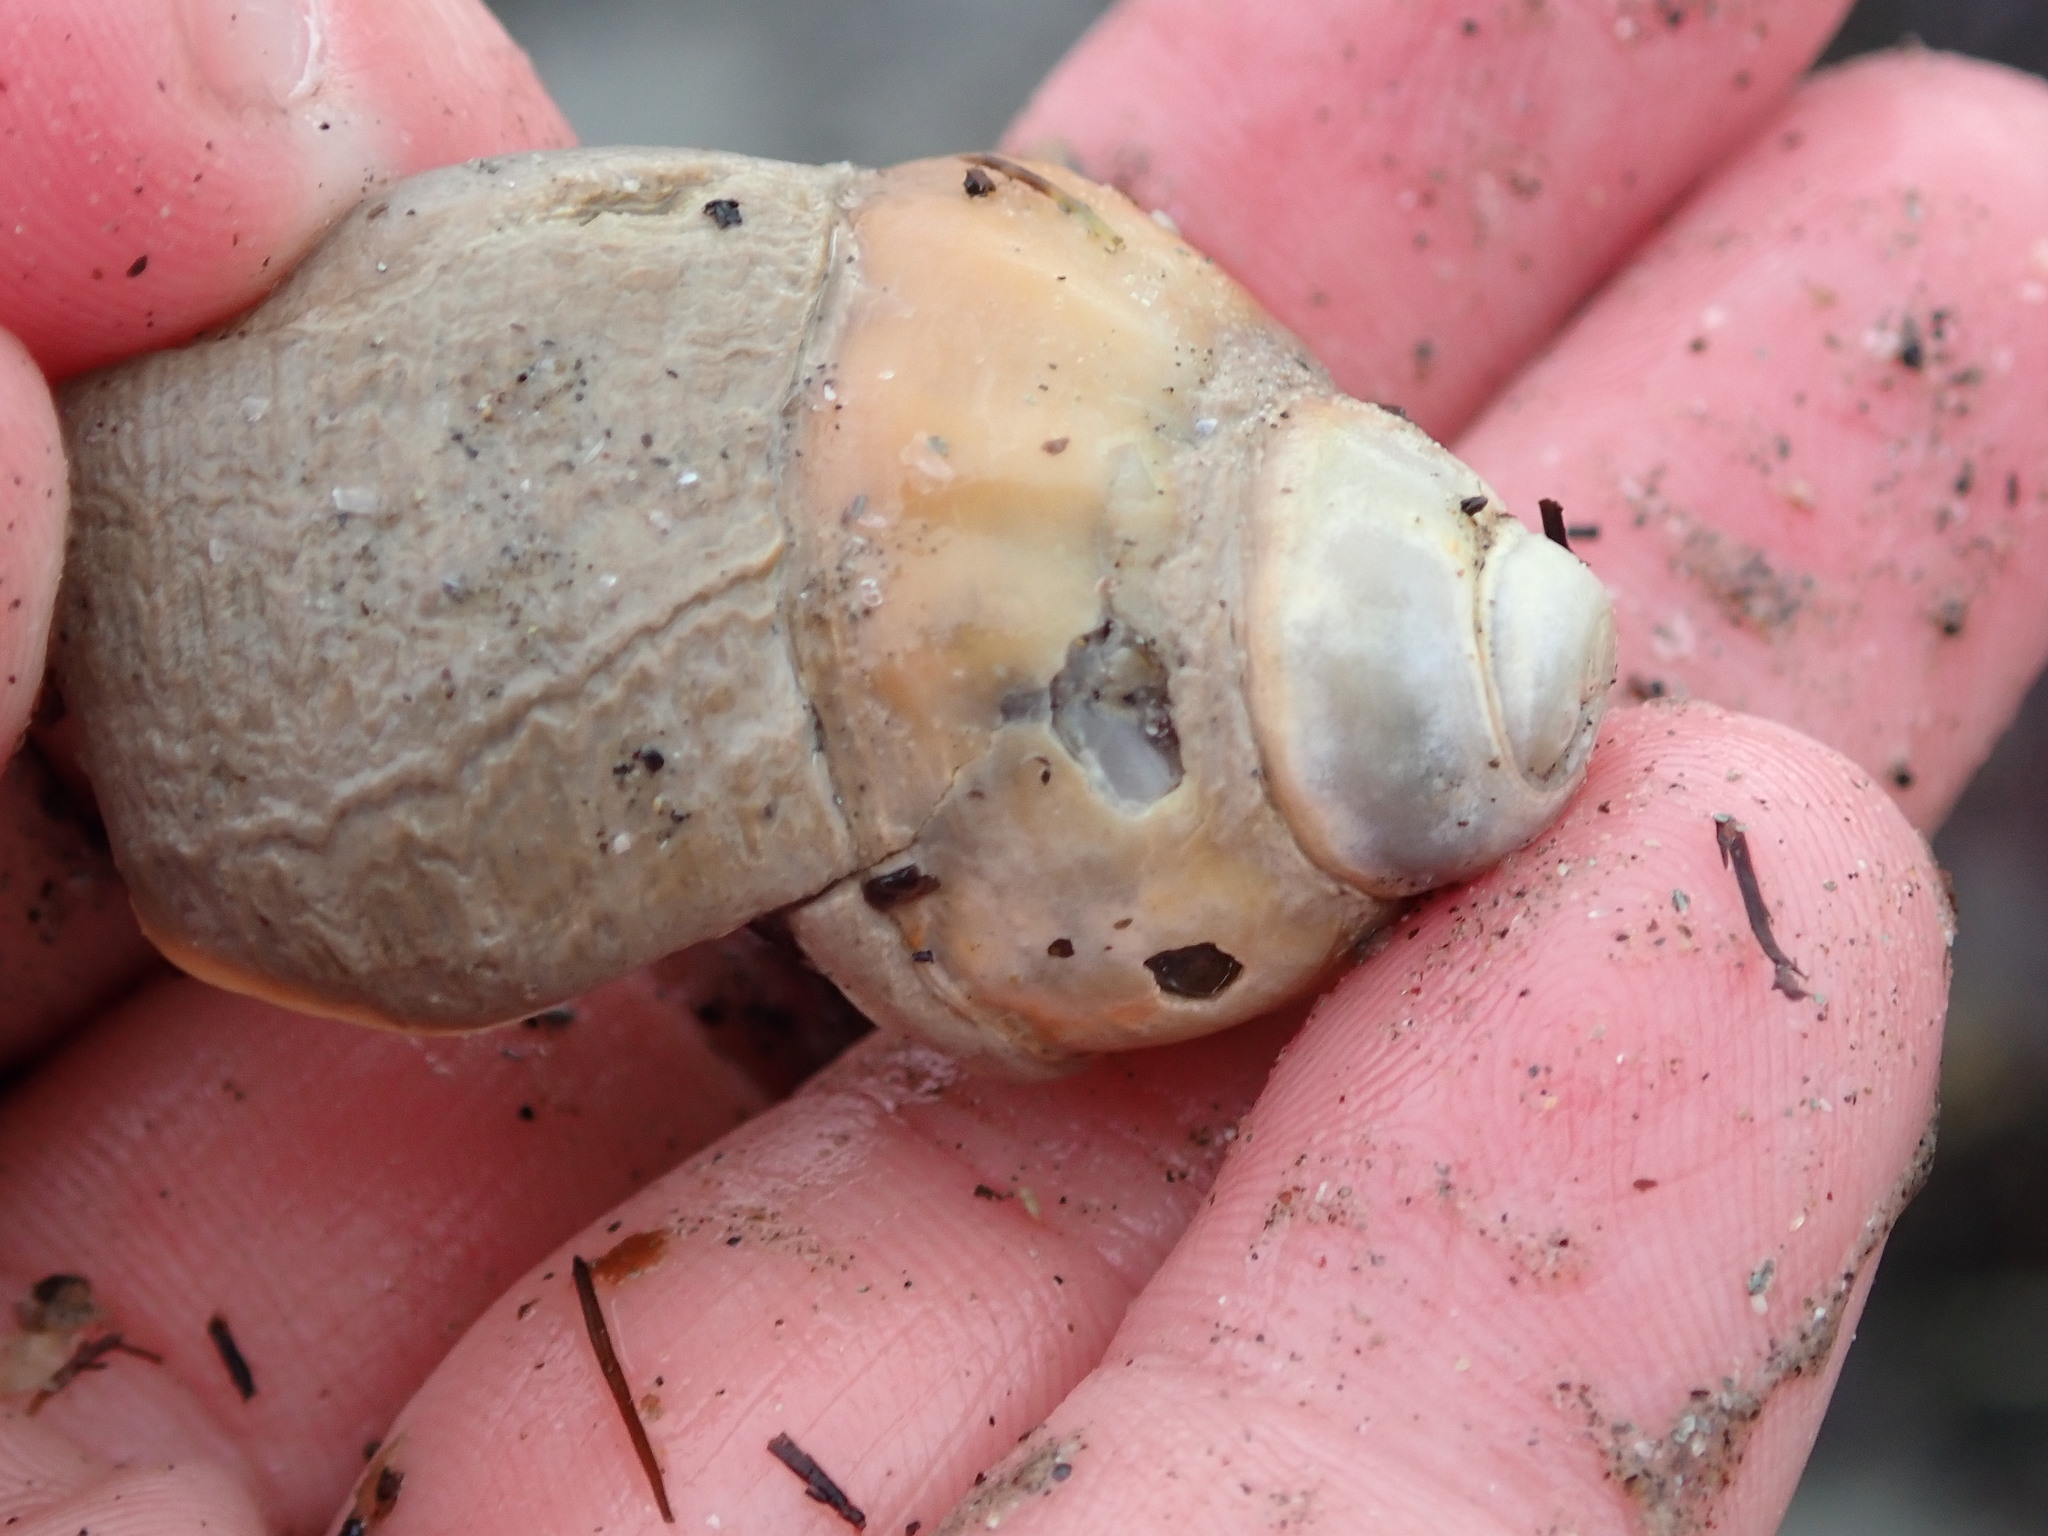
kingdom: Animalia
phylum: Mollusca
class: Gastropoda
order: Neogastropoda
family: Buccinidae
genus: Buccinum
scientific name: Buccinum undatum
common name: Common whelk
